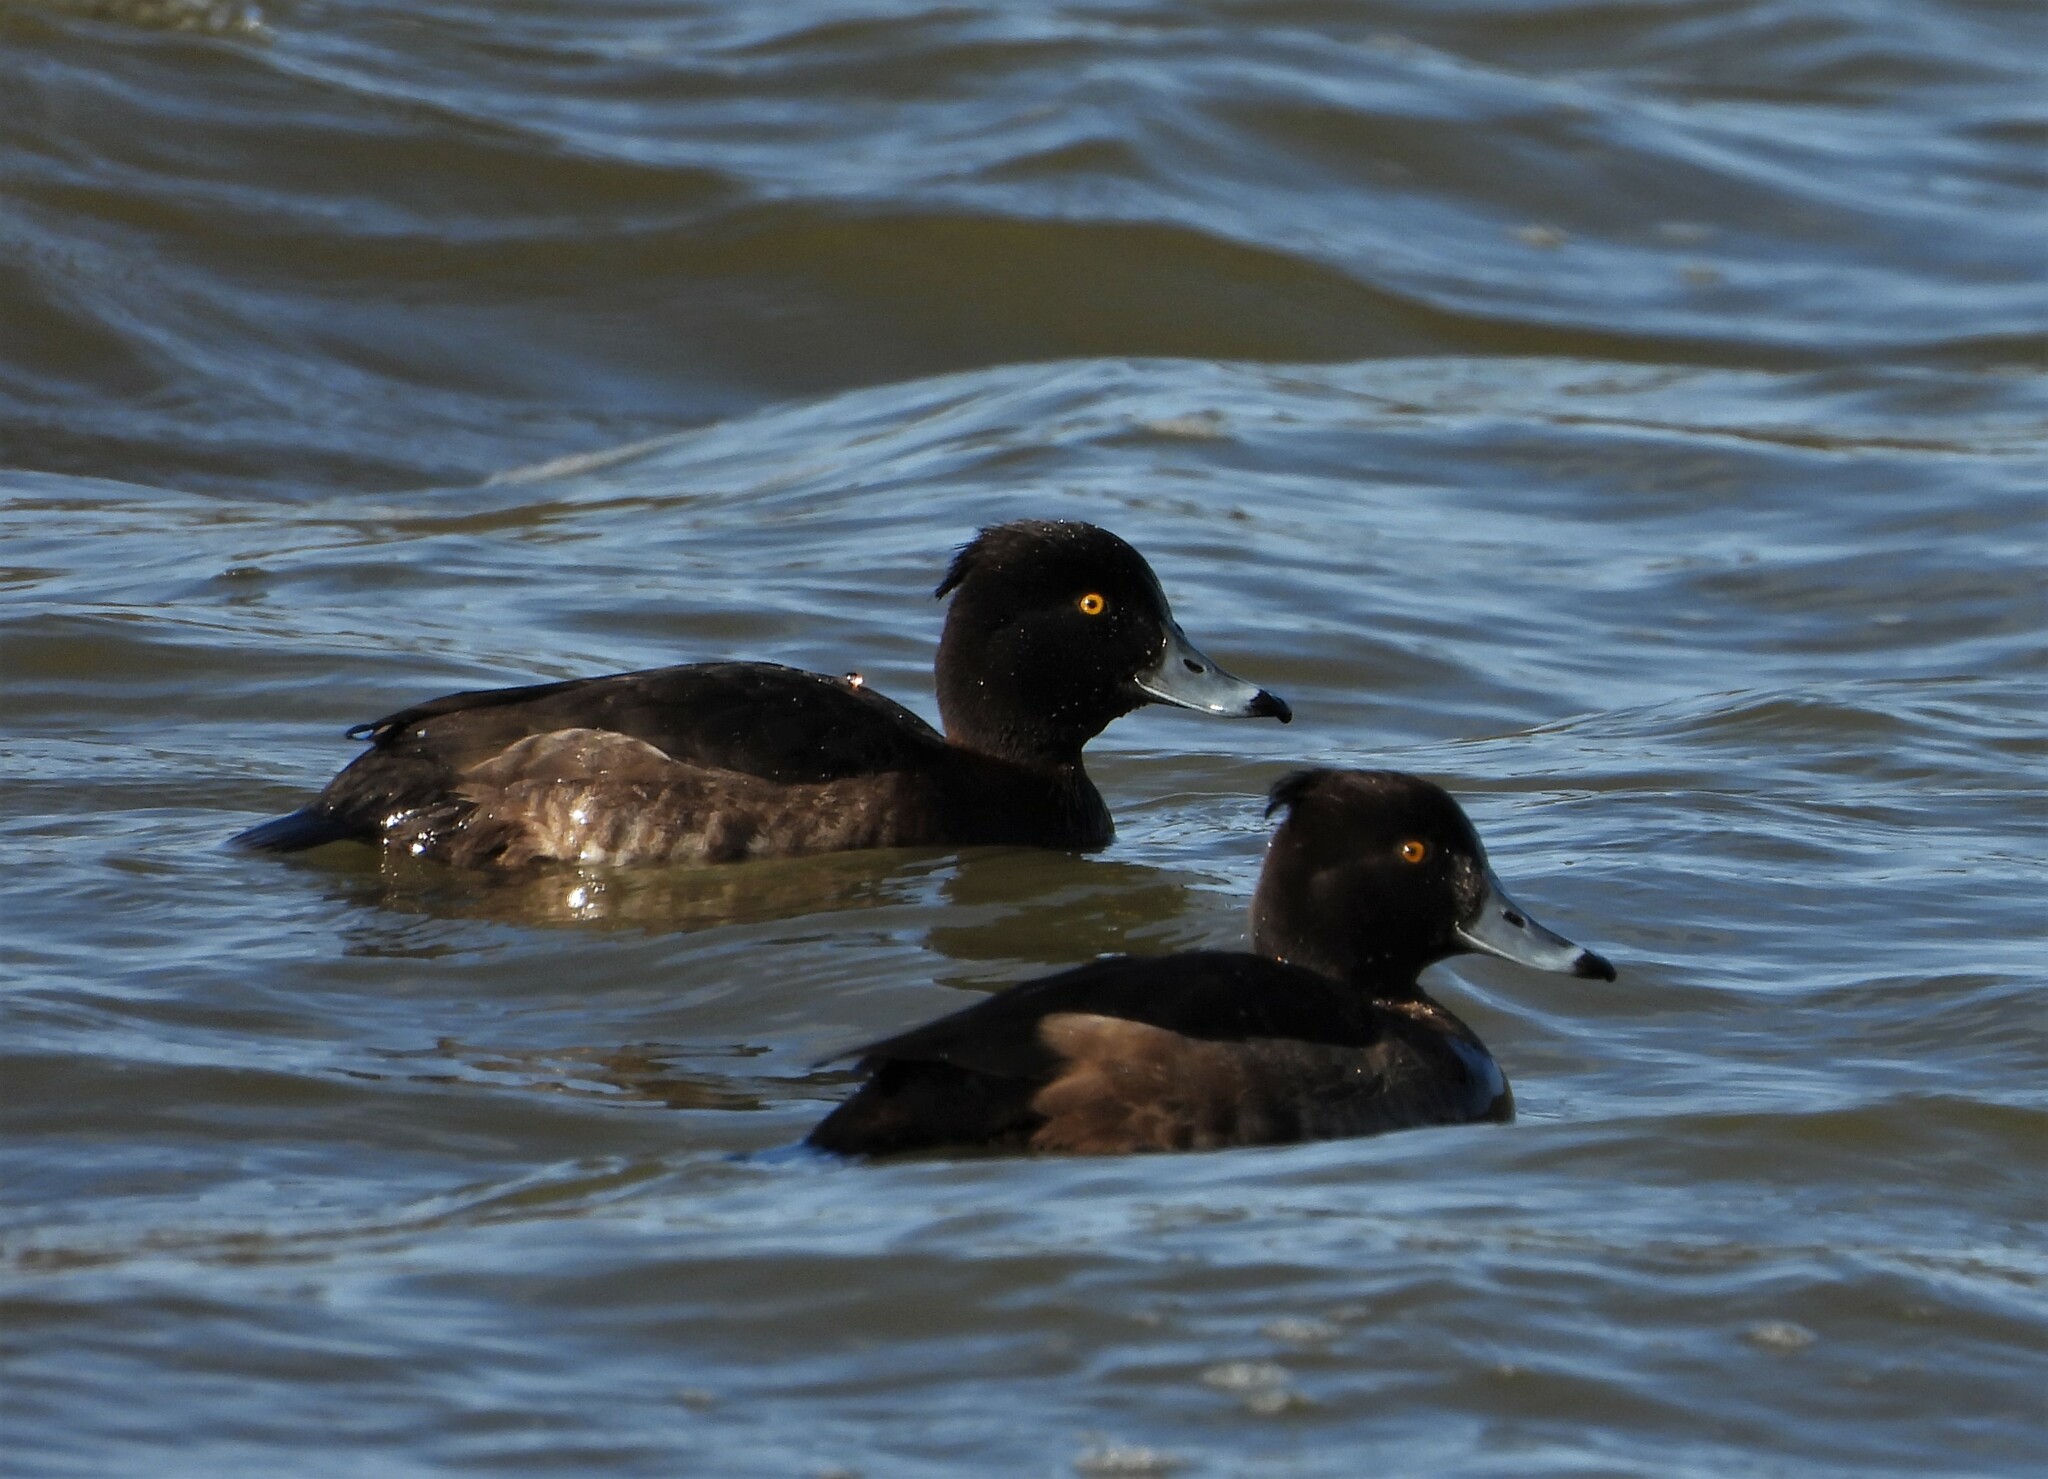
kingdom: Animalia
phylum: Chordata
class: Aves
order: Anseriformes
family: Anatidae
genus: Aythya
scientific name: Aythya fuligula
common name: Tufted duck
